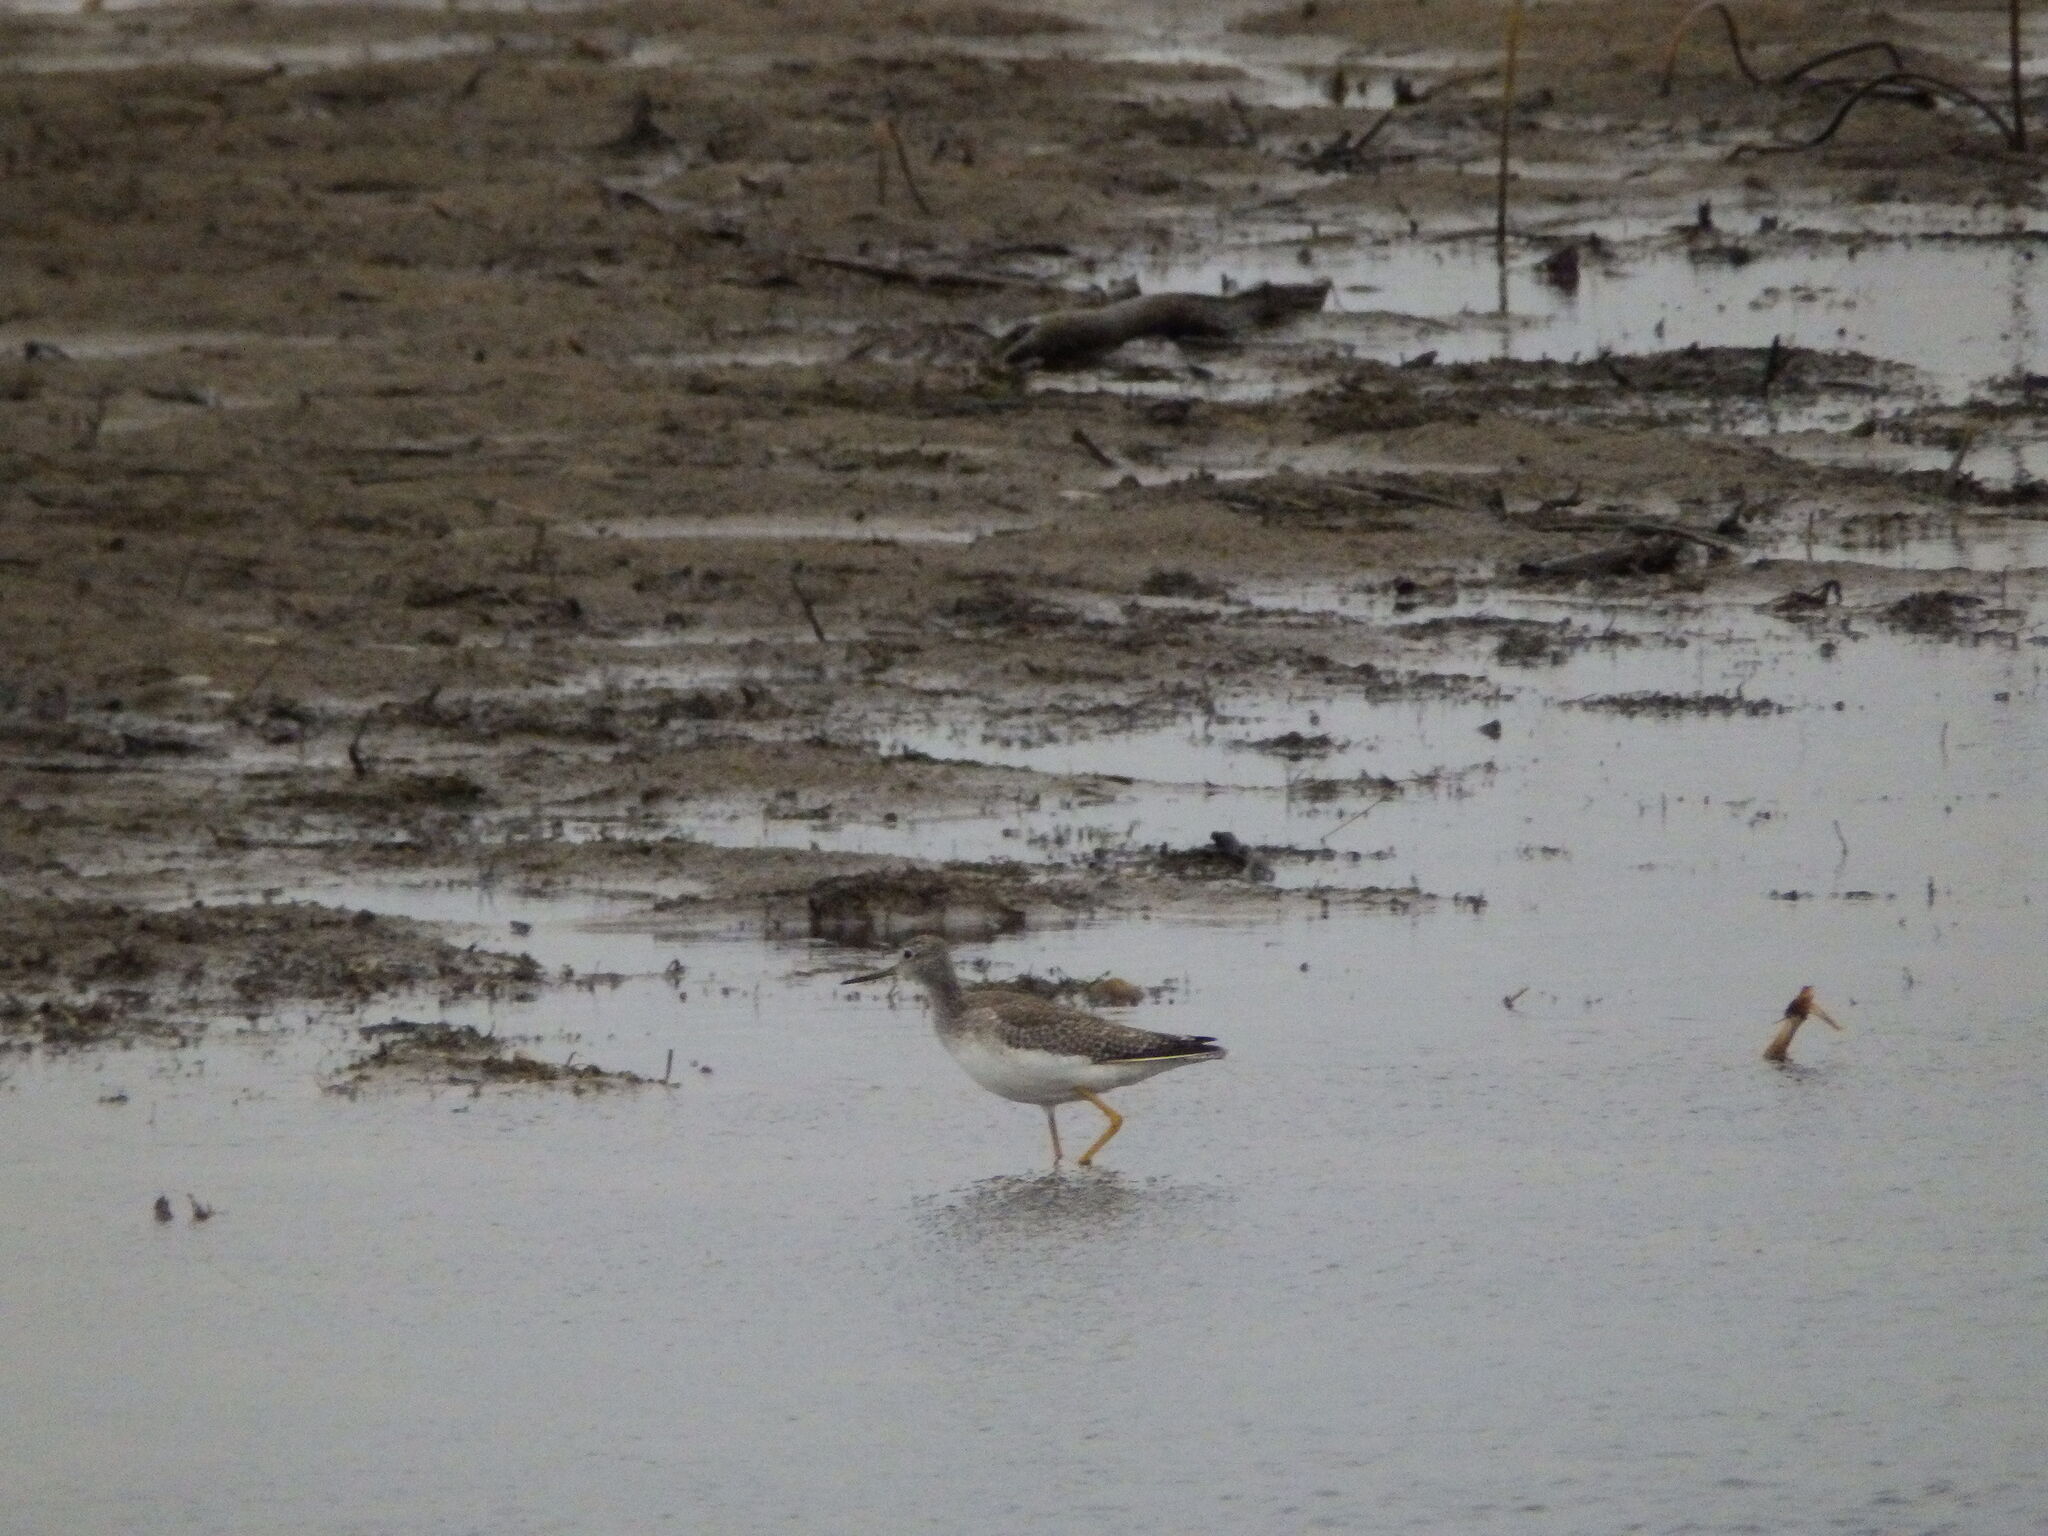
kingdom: Animalia
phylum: Chordata
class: Aves
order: Charadriiformes
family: Scolopacidae
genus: Tringa
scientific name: Tringa melanoleuca
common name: Greater yellowlegs
